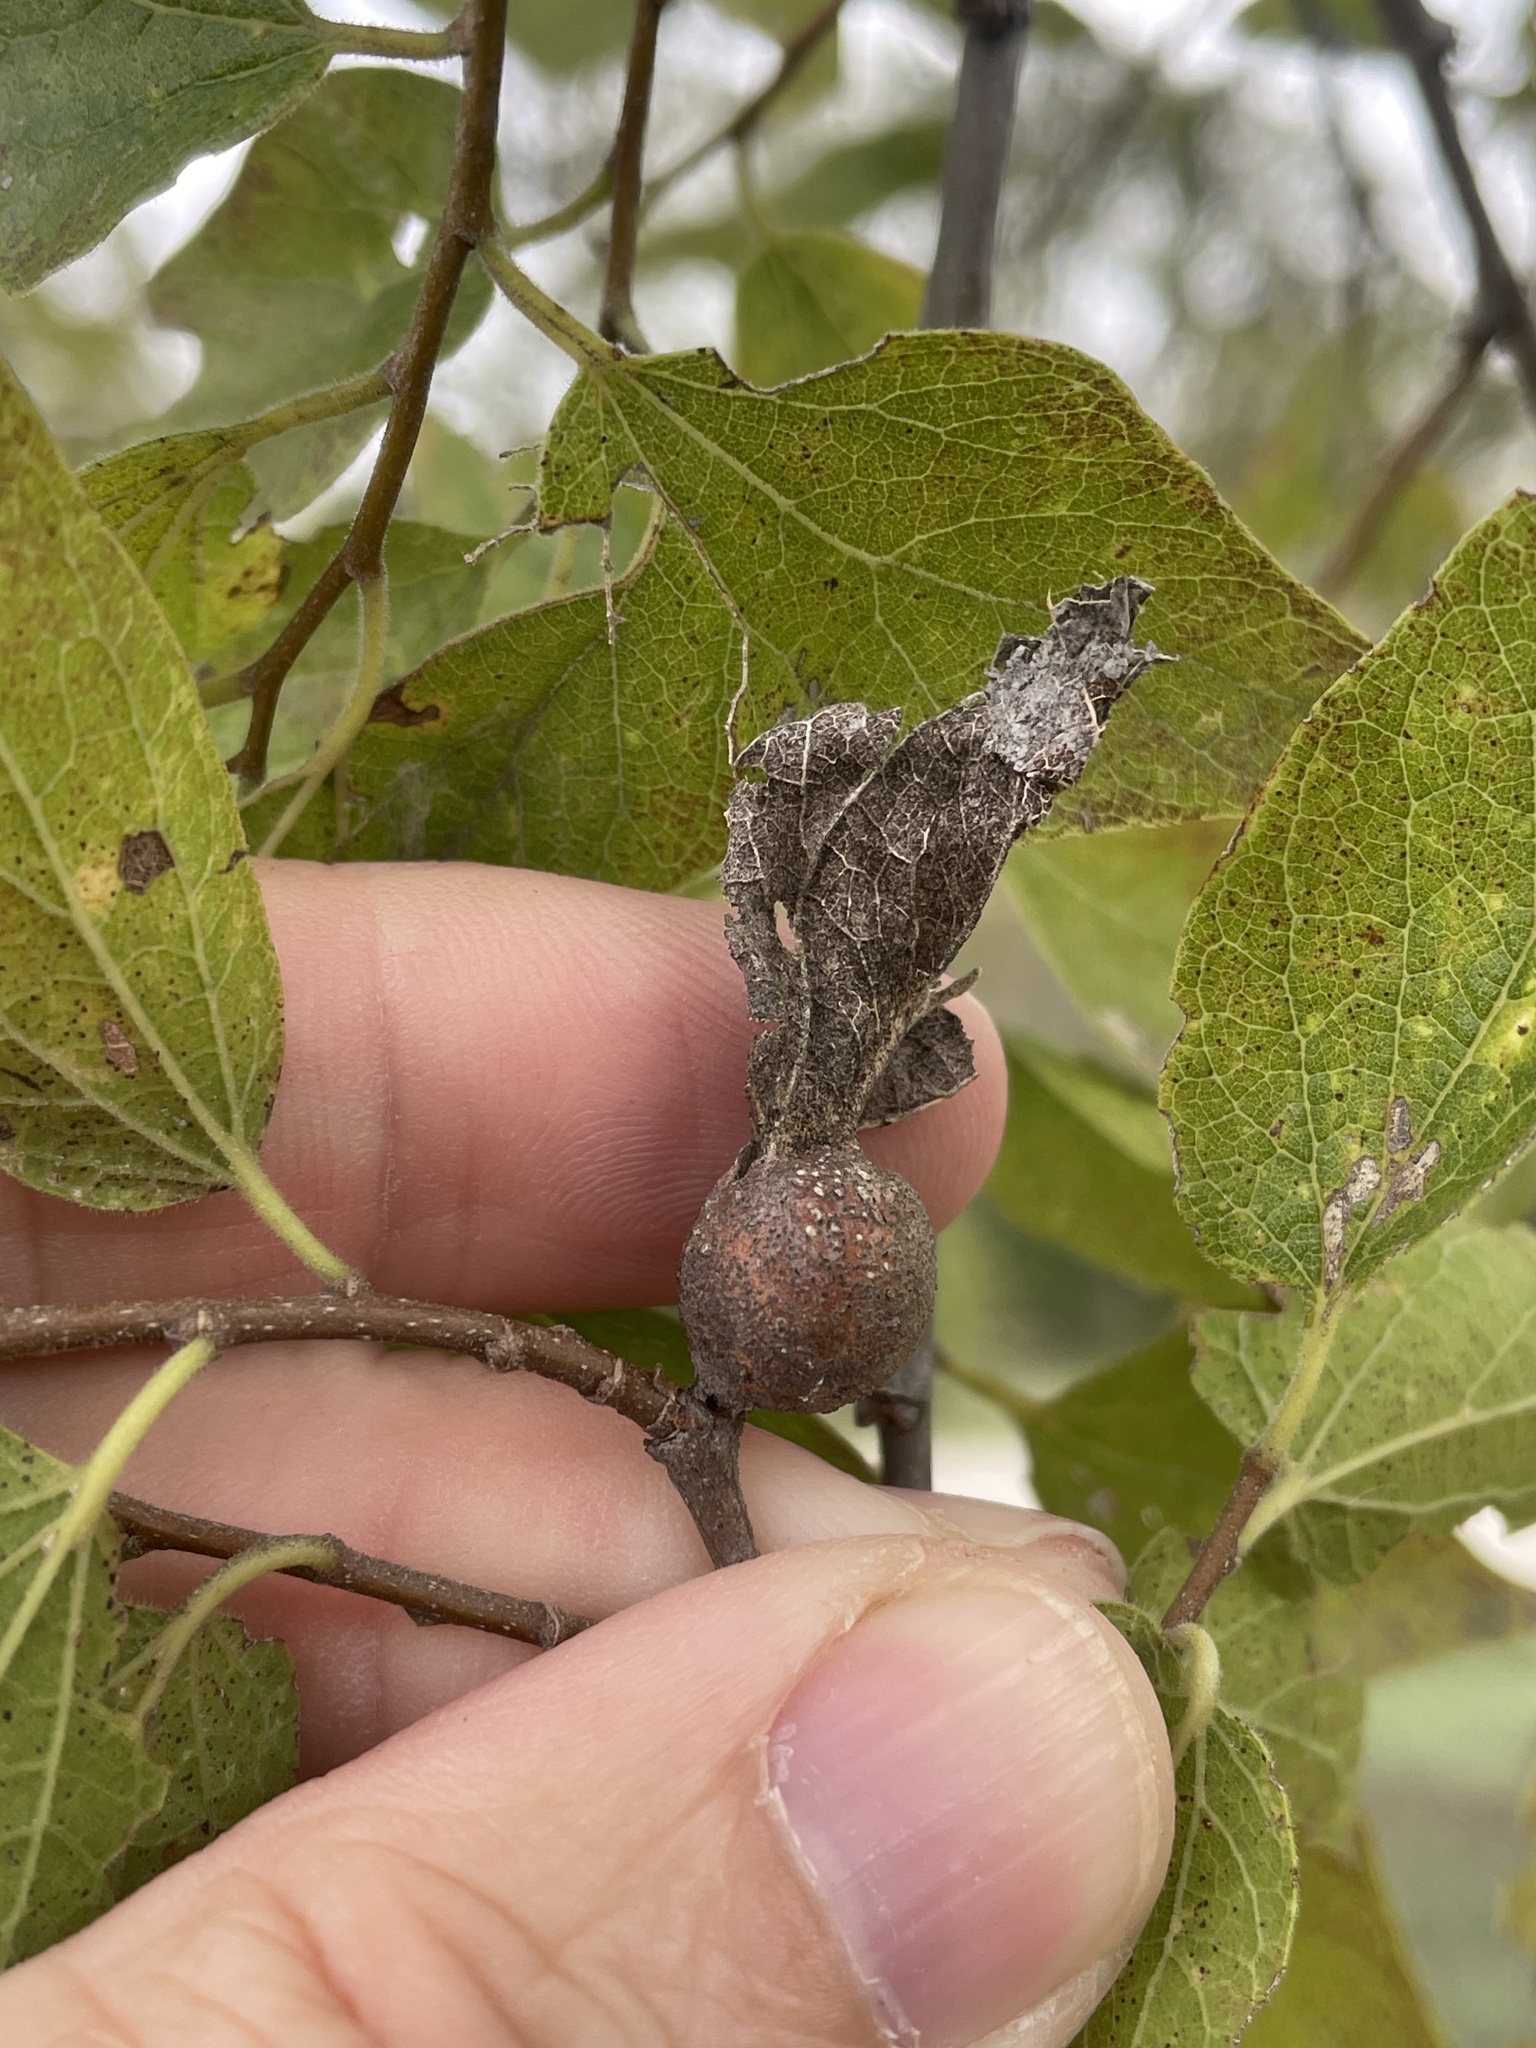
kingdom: Animalia
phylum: Arthropoda
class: Insecta
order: Hemiptera
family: Aphalaridae
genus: Pachypsylla
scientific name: Pachypsylla venusta
